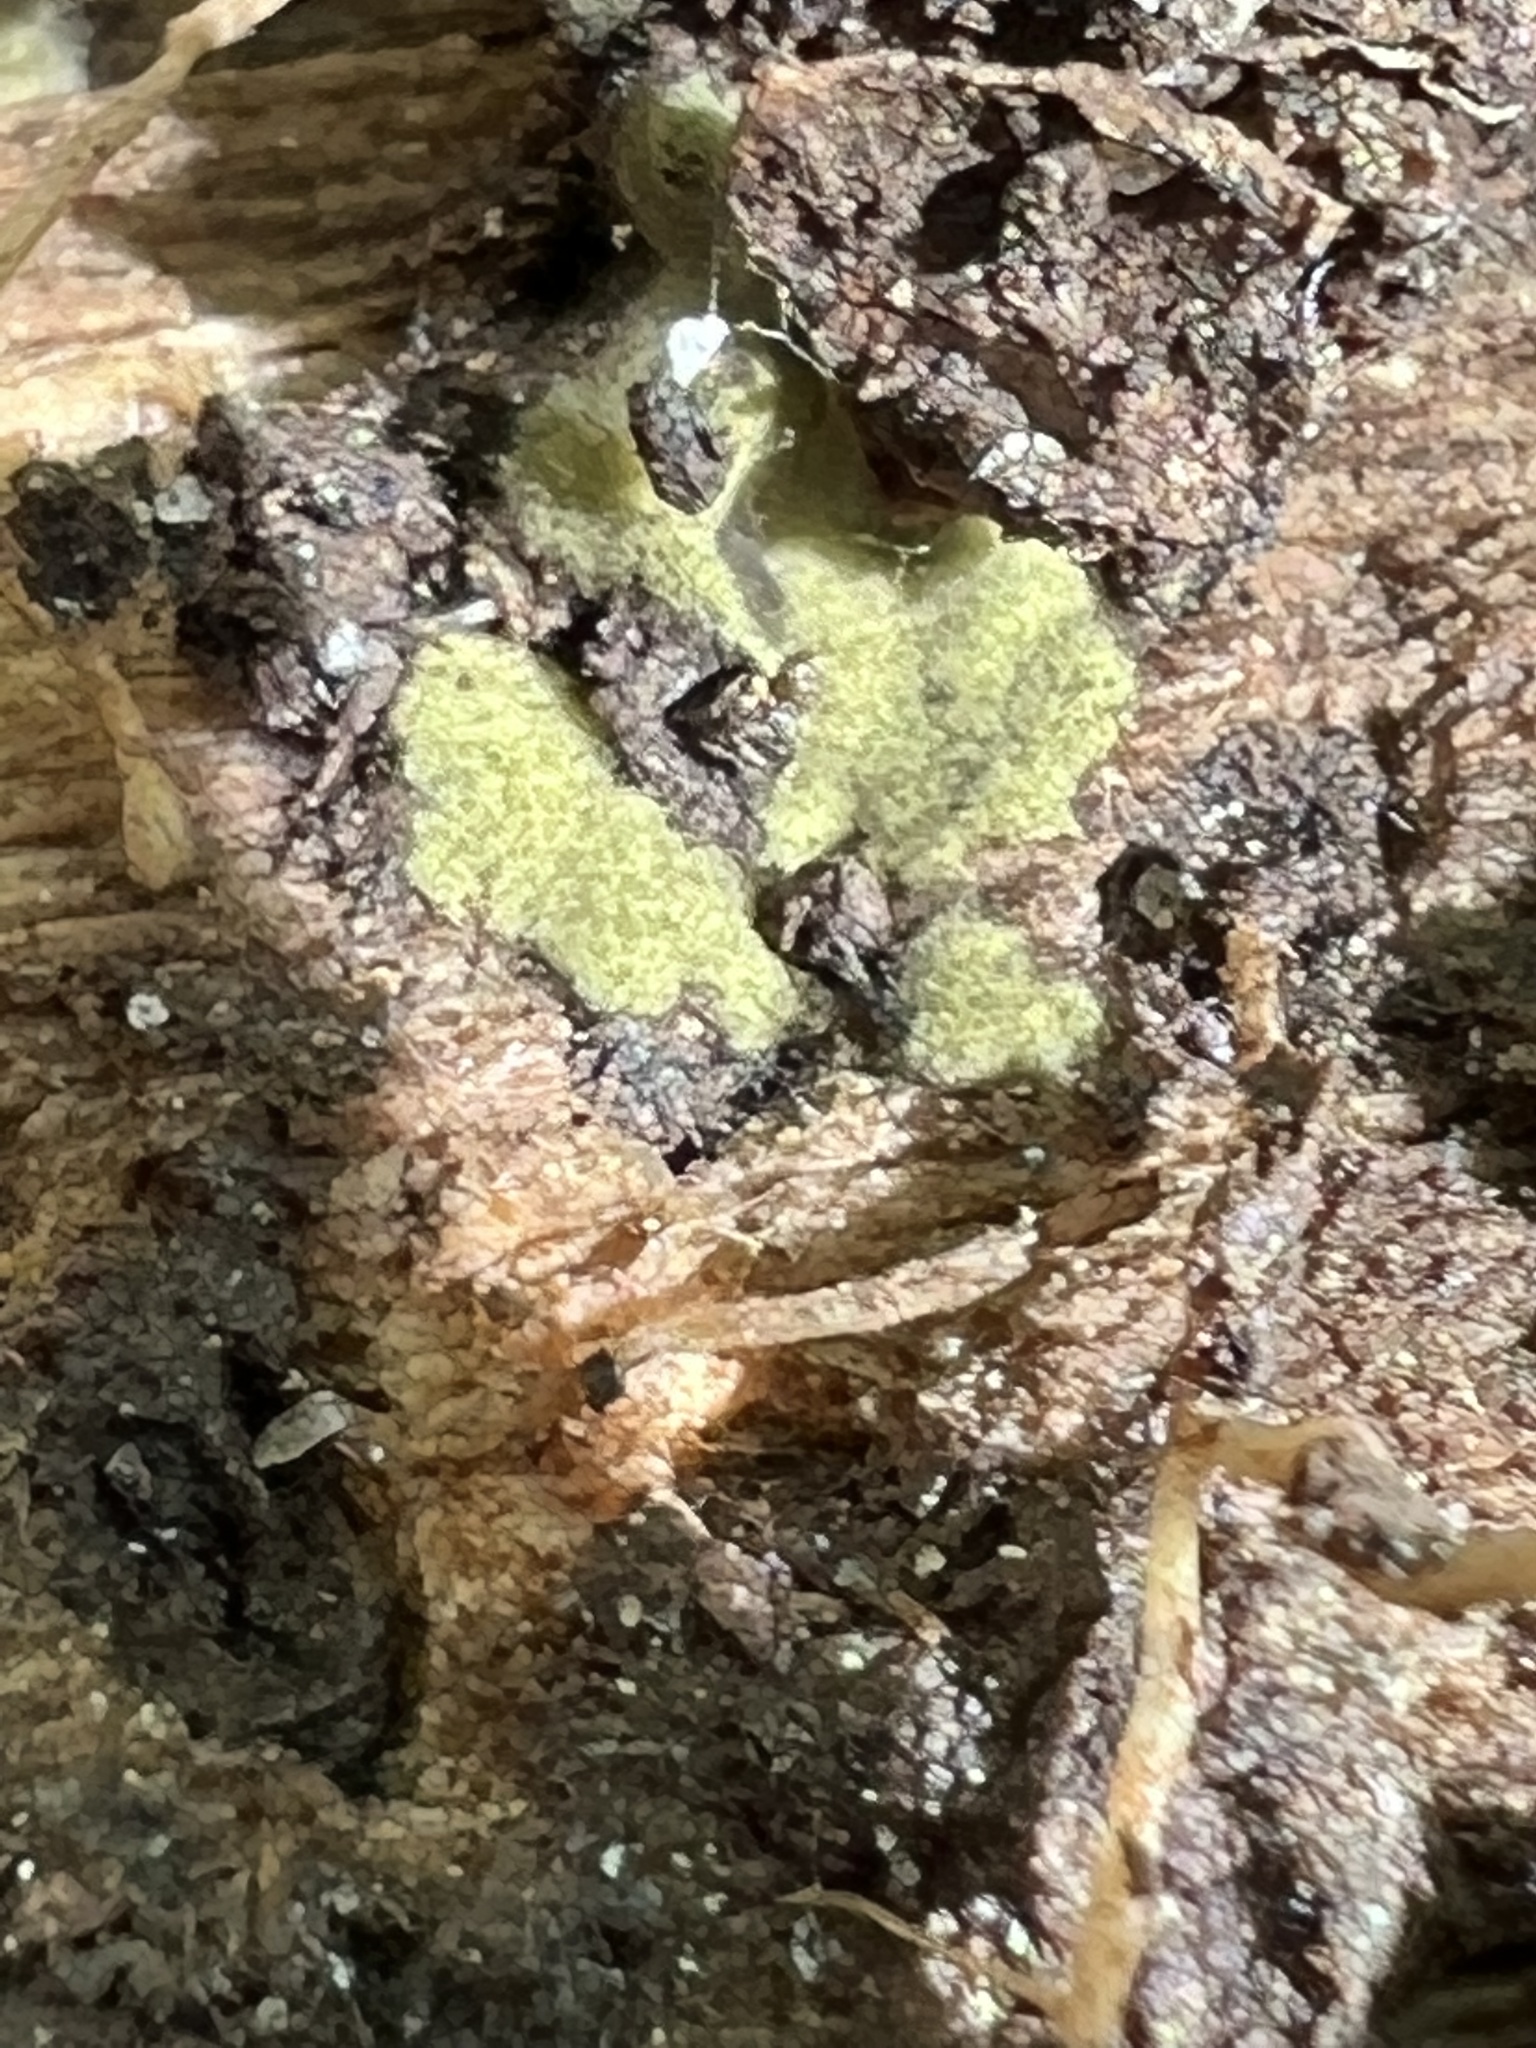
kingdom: Fungi
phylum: Ascomycota
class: Sordariomycetes
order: Hypocreales
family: Hypocreaceae
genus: Trichoderma
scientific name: Trichoderma
